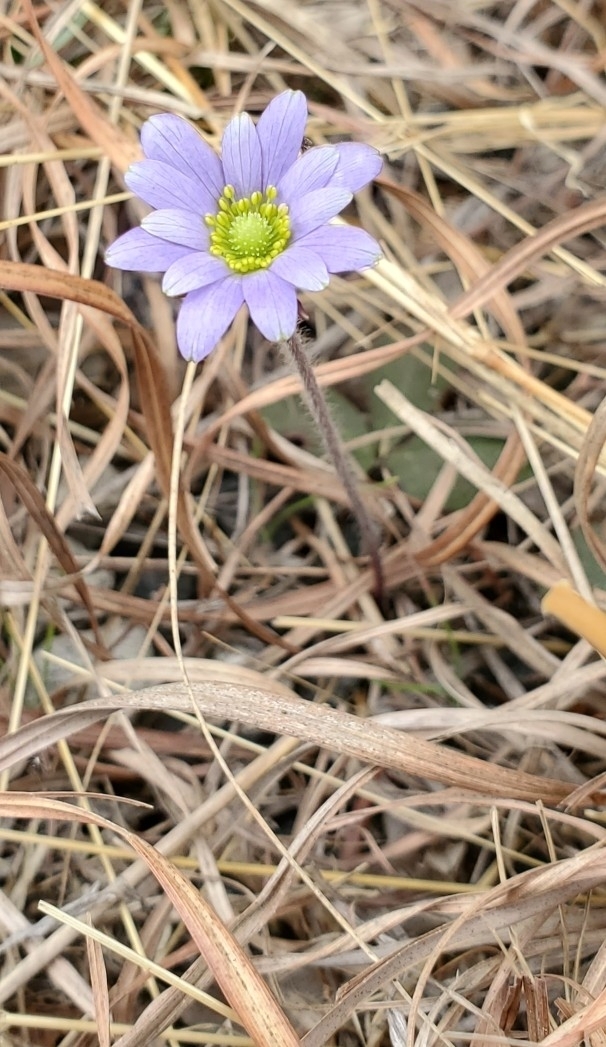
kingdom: Plantae
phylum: Tracheophyta
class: Magnoliopsida
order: Ranunculales
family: Ranunculaceae
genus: Anemone
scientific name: Anemone berlandieri
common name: Ten-petal anemone
